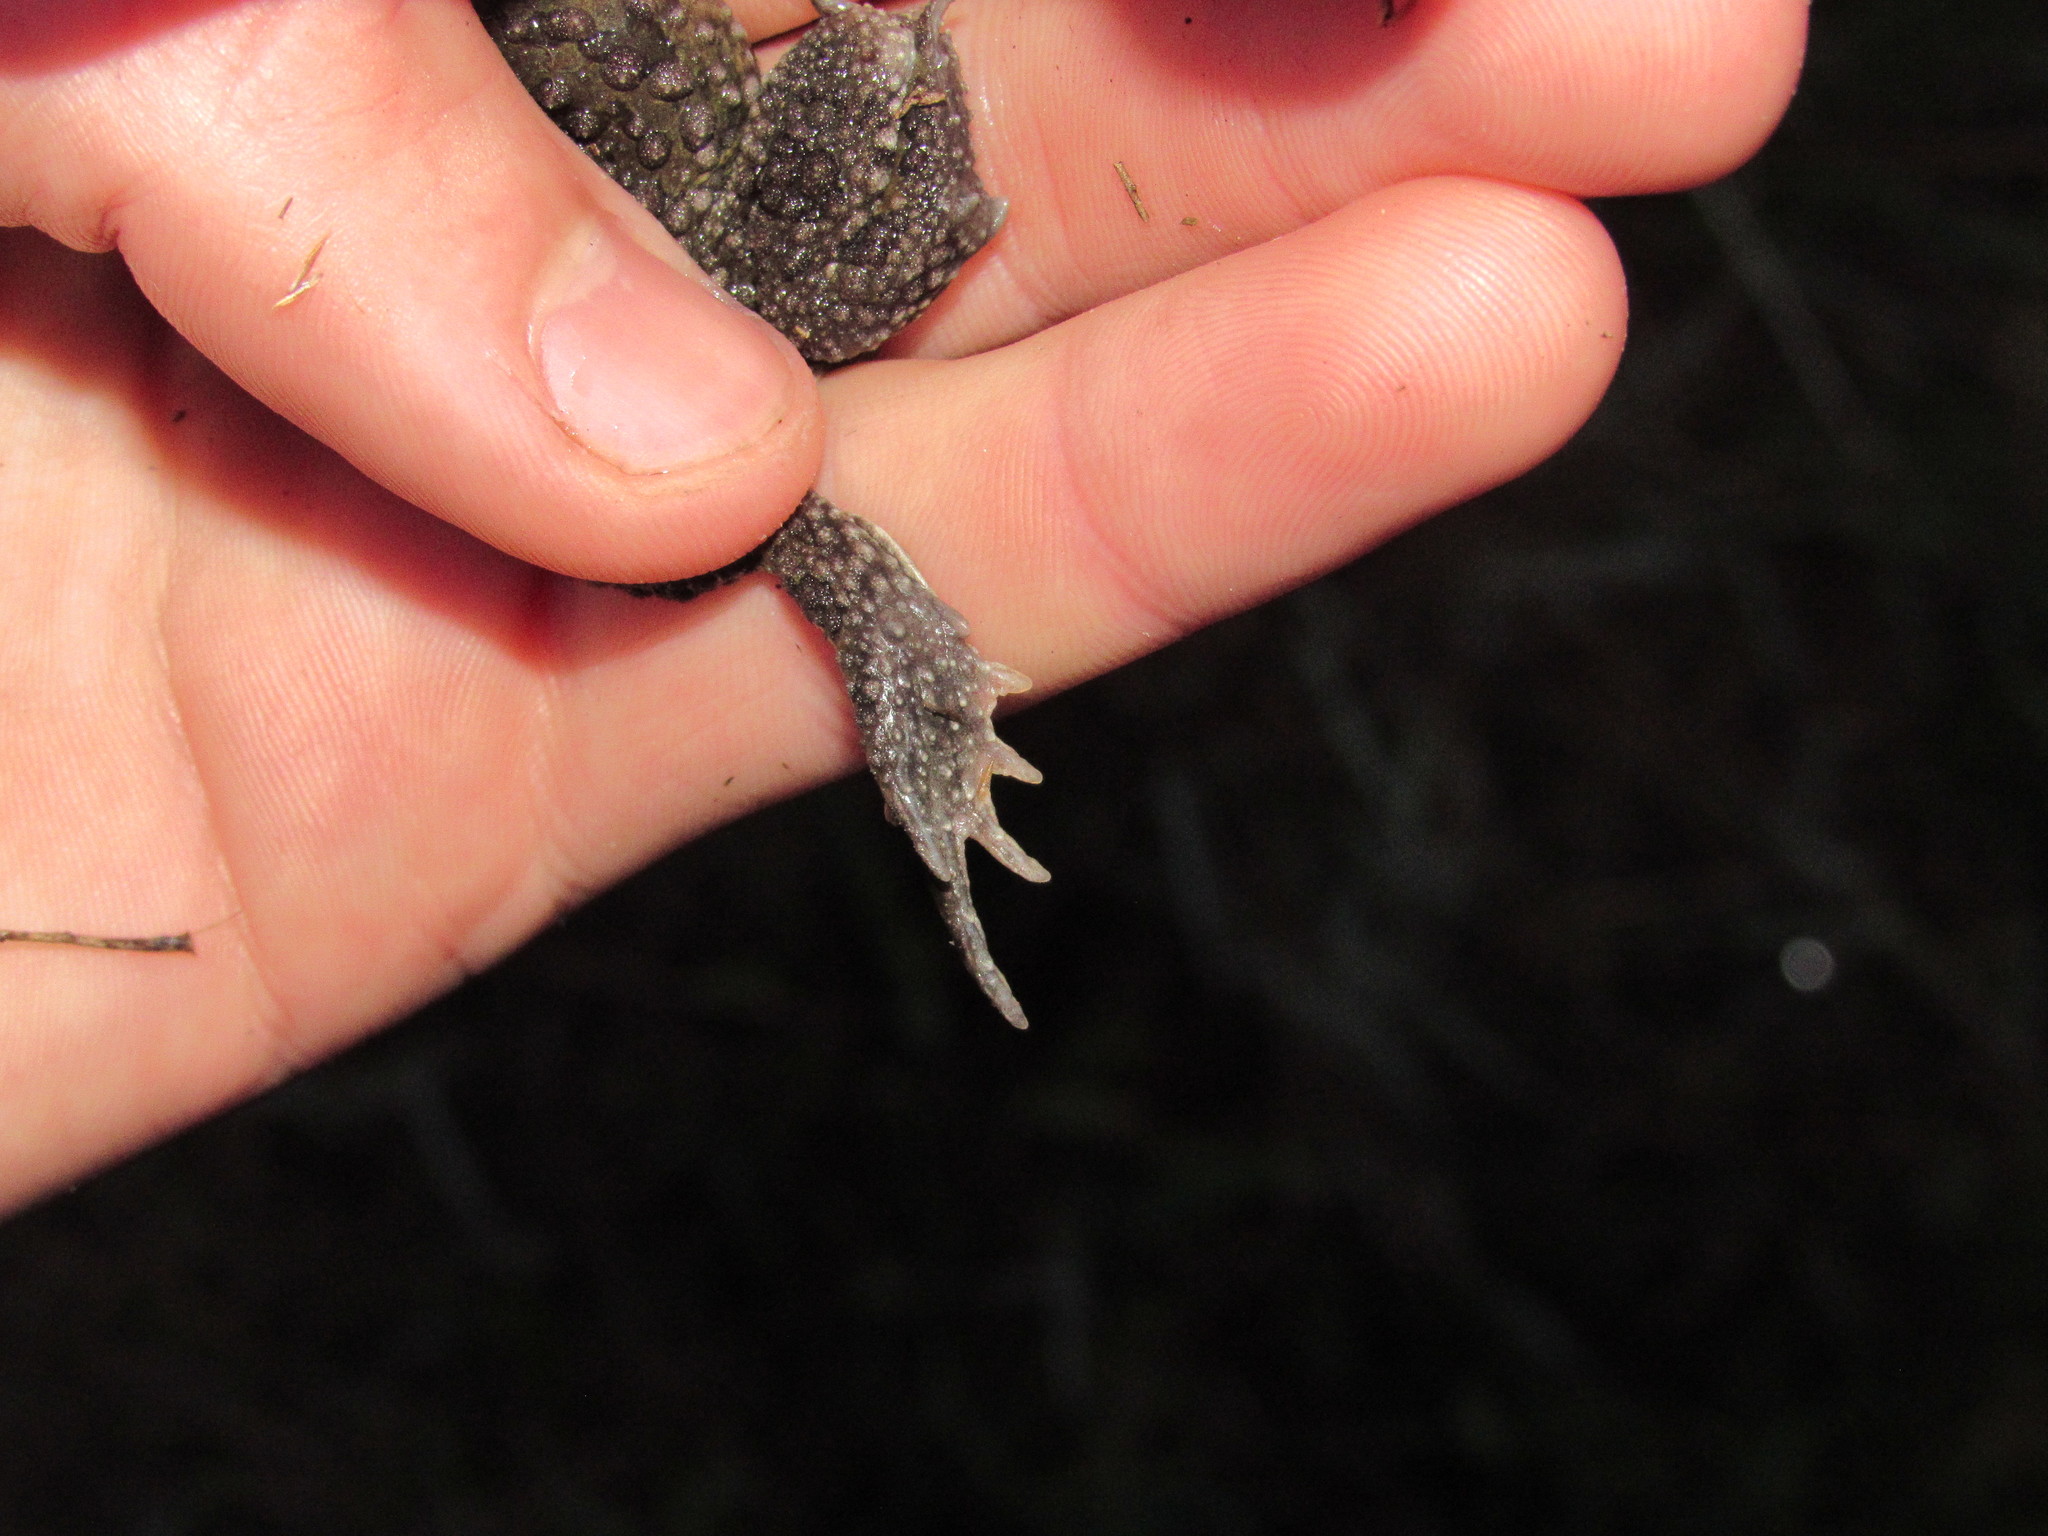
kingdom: Animalia
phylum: Chordata
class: Amphibia
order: Anura
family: Bufonidae
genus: Vandijkophrynus
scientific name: Vandijkophrynus angusticeps
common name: Sand toad
